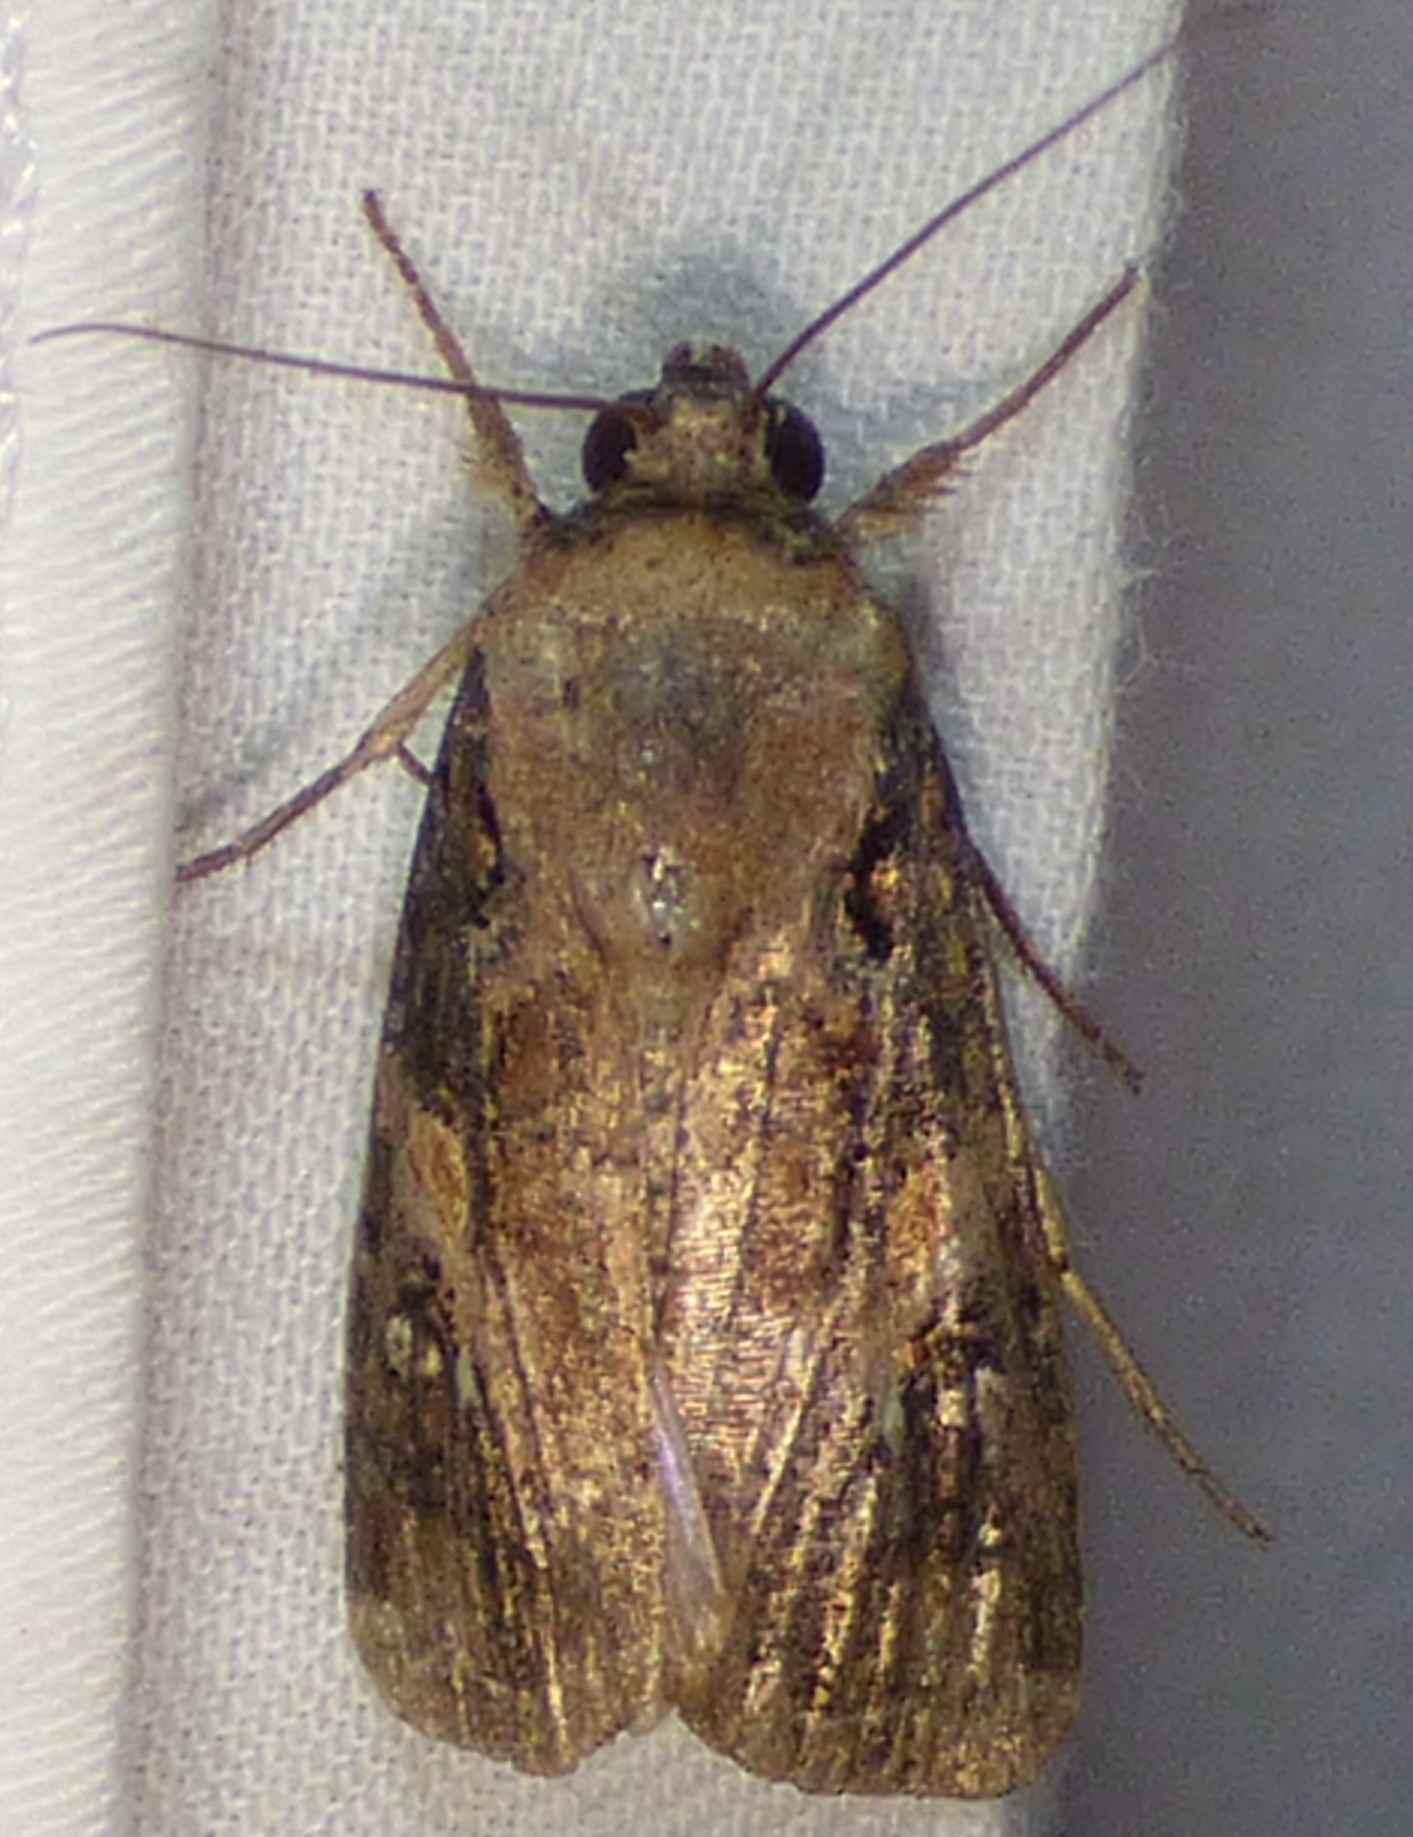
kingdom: Animalia
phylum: Arthropoda
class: Insecta
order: Lepidoptera
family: Noctuidae
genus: Spodoptera
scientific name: Spodoptera frugiperda
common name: Fall armyworm
